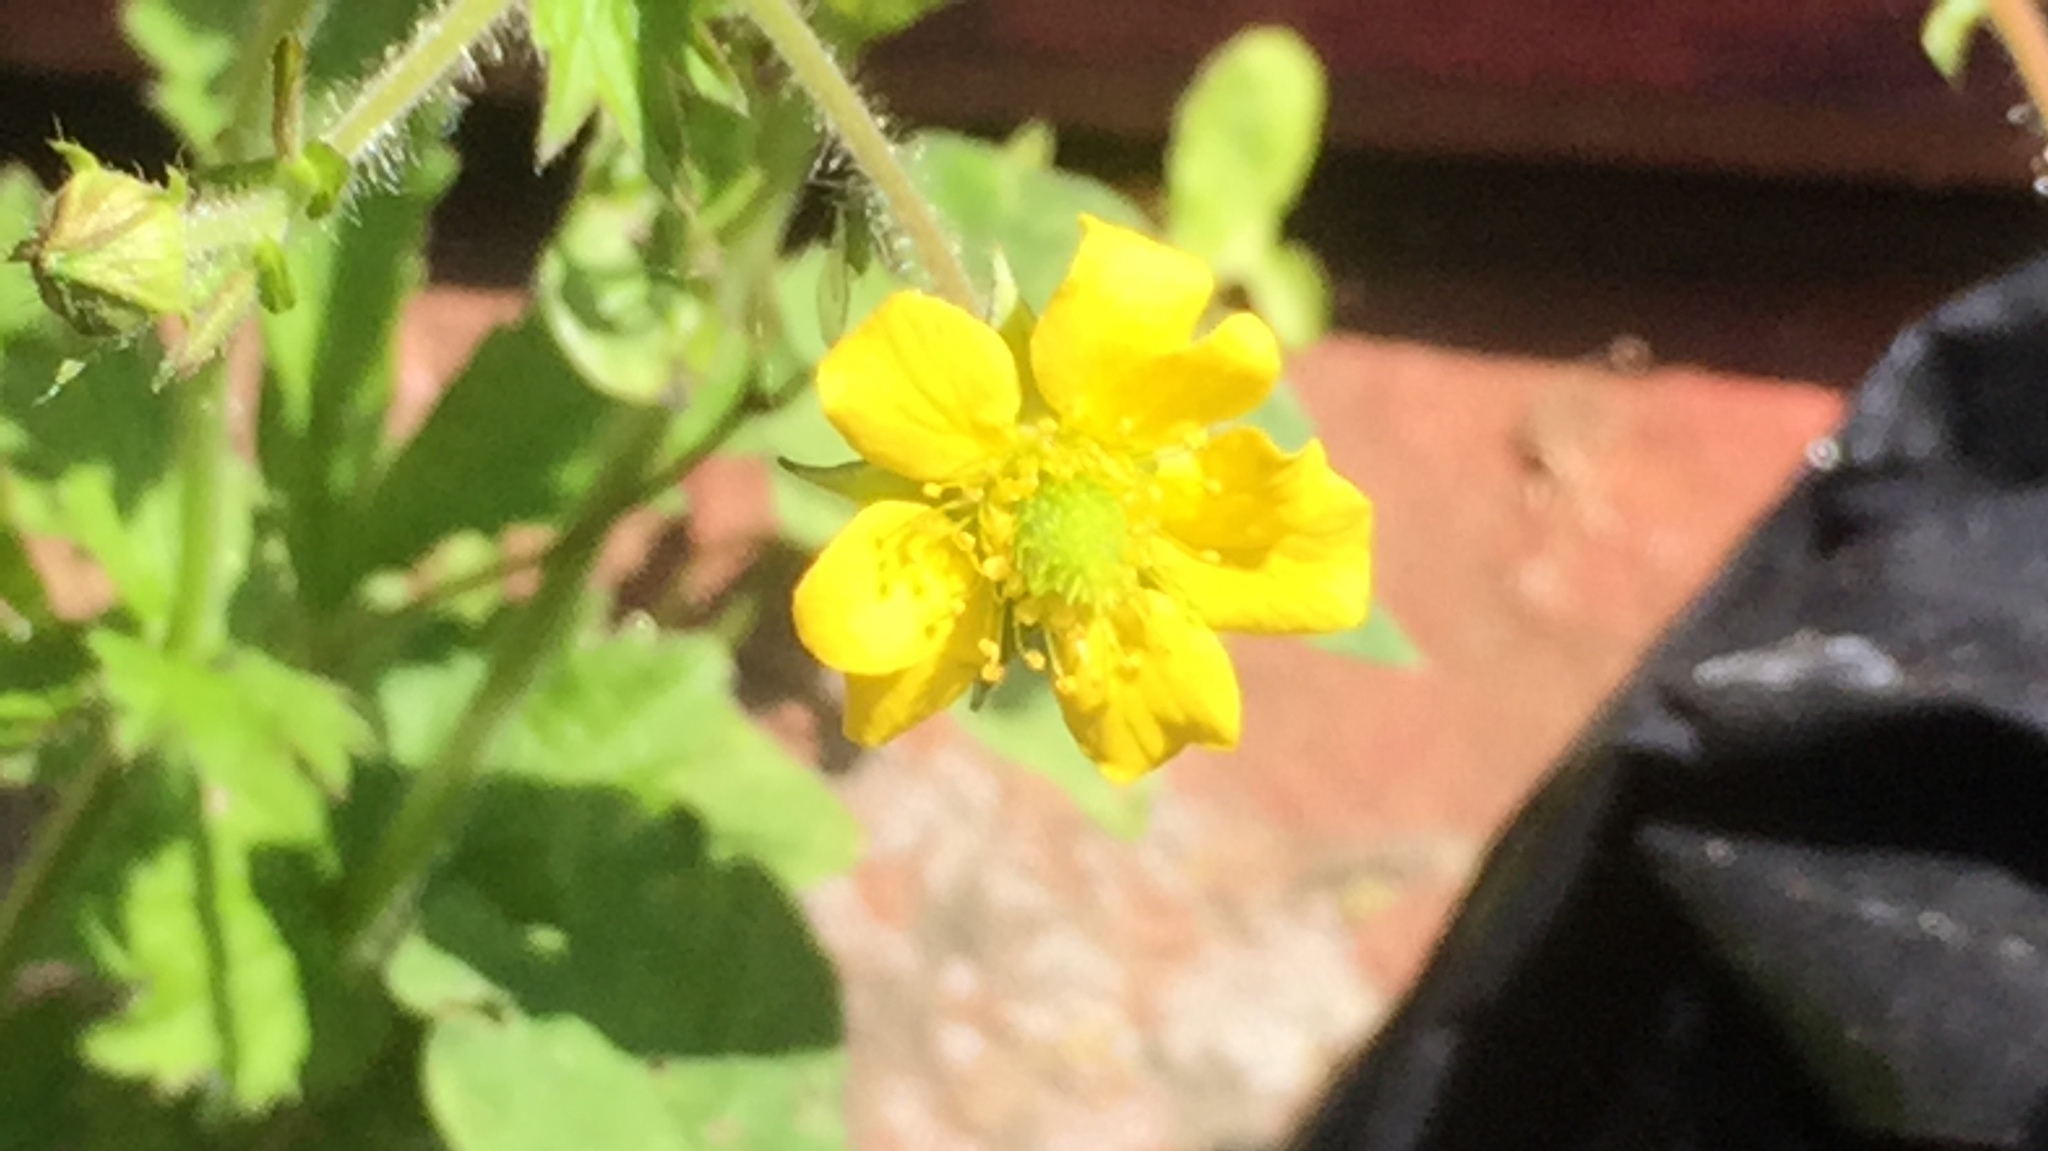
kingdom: Plantae
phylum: Tracheophyta
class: Magnoliopsida
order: Rosales
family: Rosaceae
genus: Geum
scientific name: Geum urbanum
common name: Wood avens
